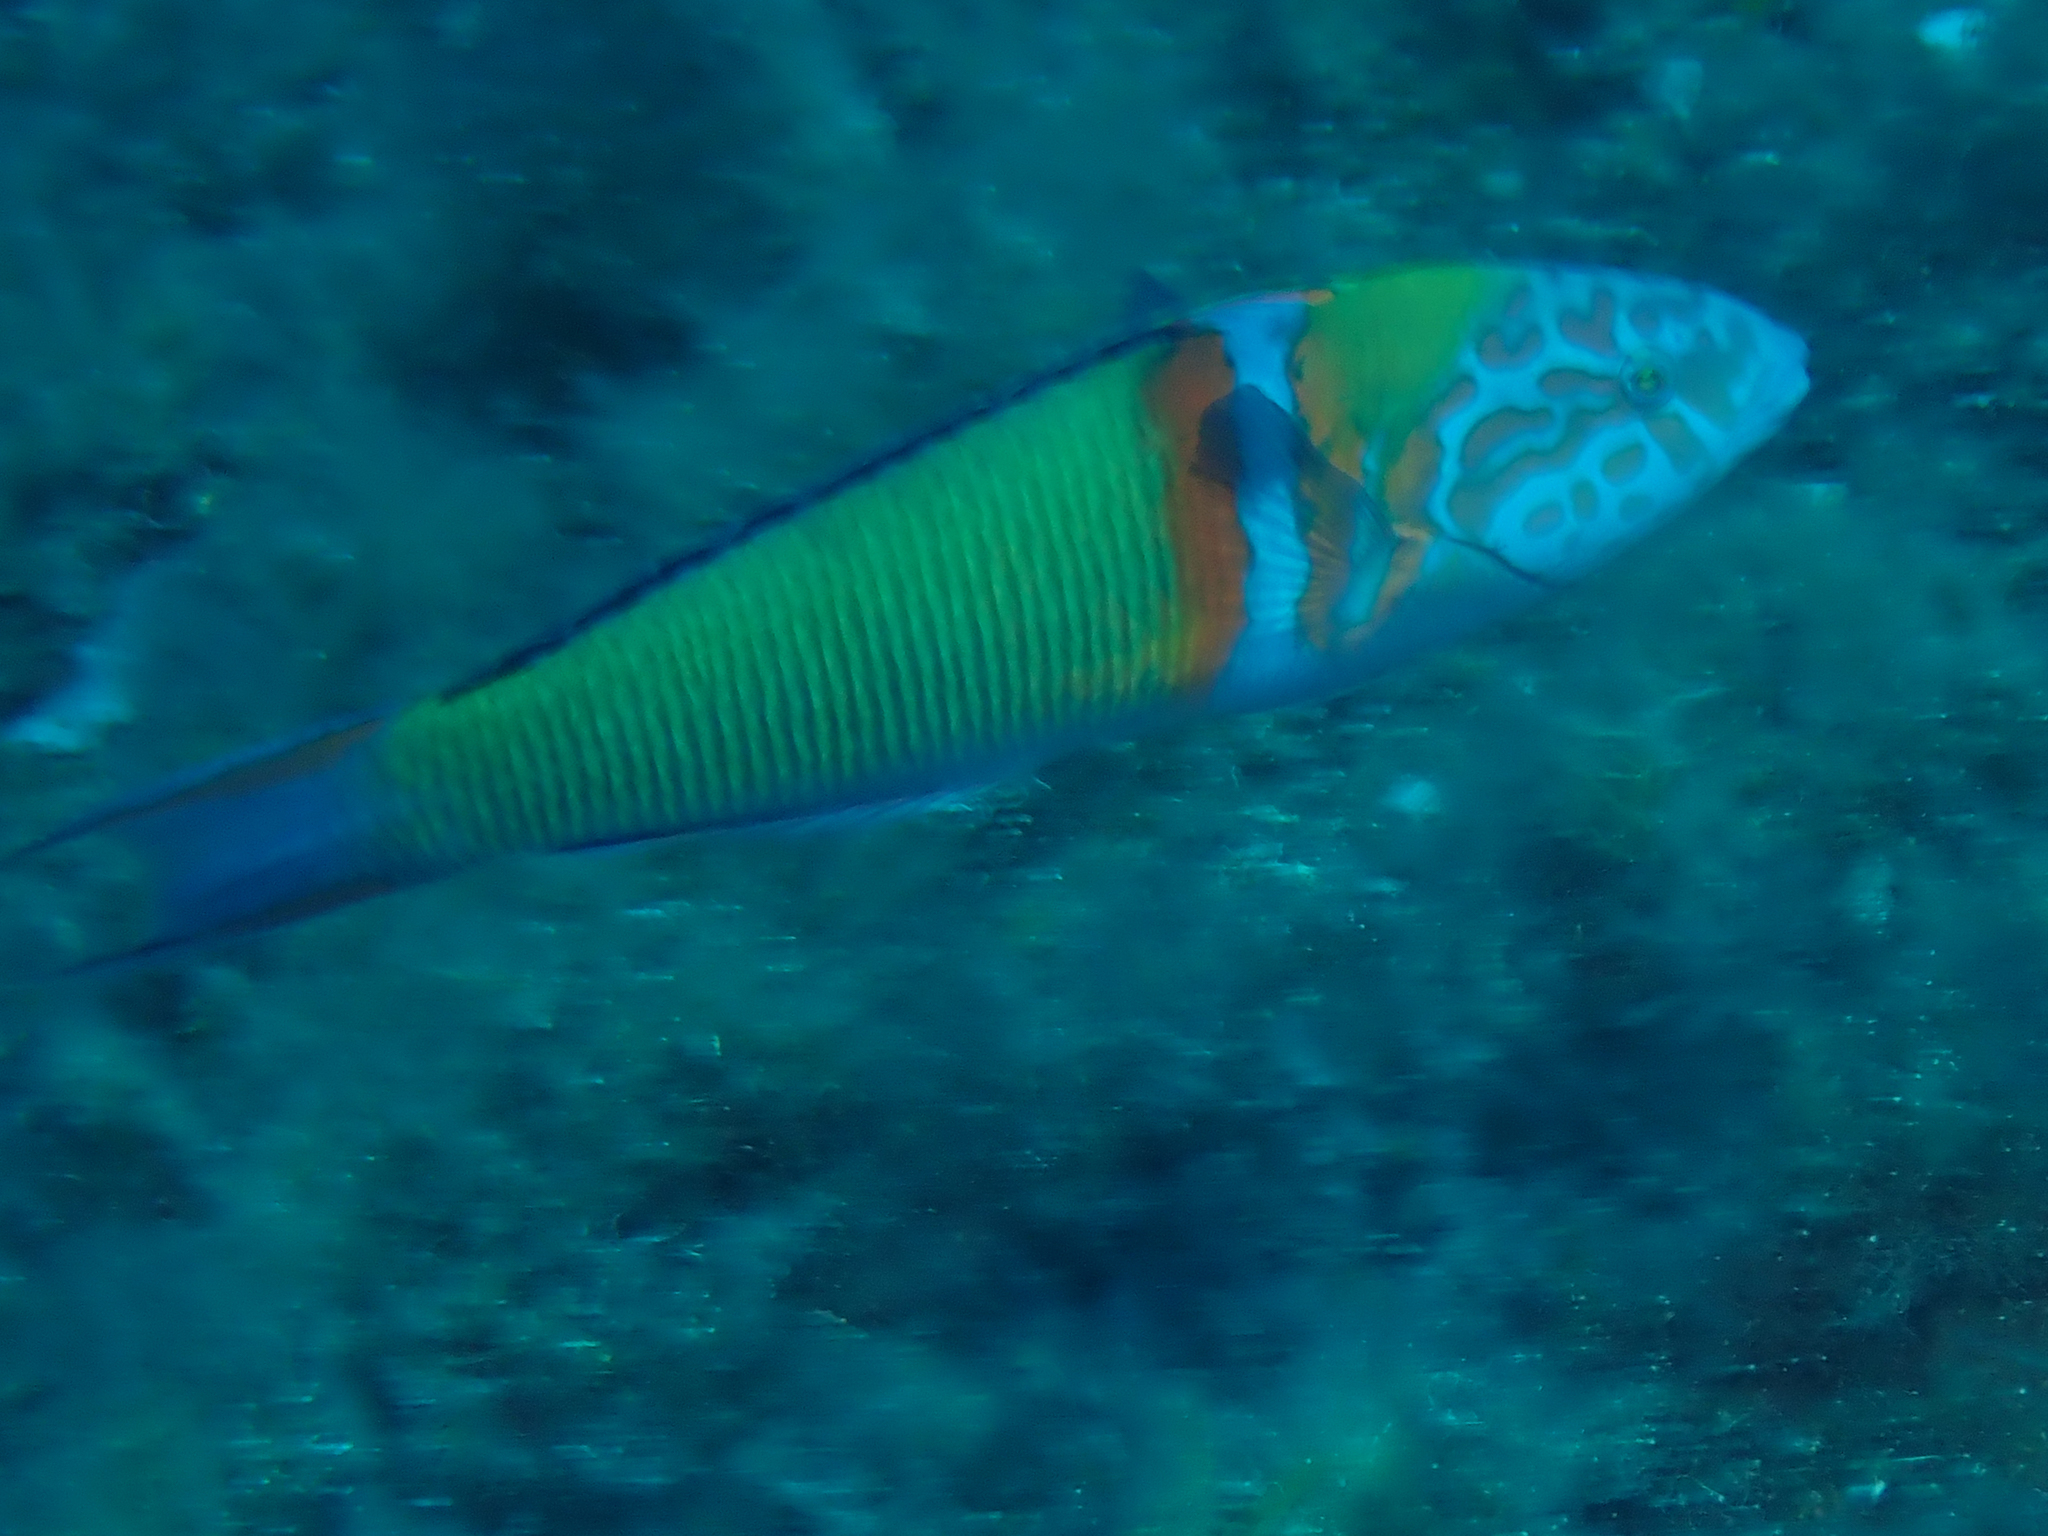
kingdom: Animalia
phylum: Chordata
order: Perciformes
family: Labridae
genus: Thalassoma
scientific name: Thalassoma pavo
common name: Ornate wrasse
